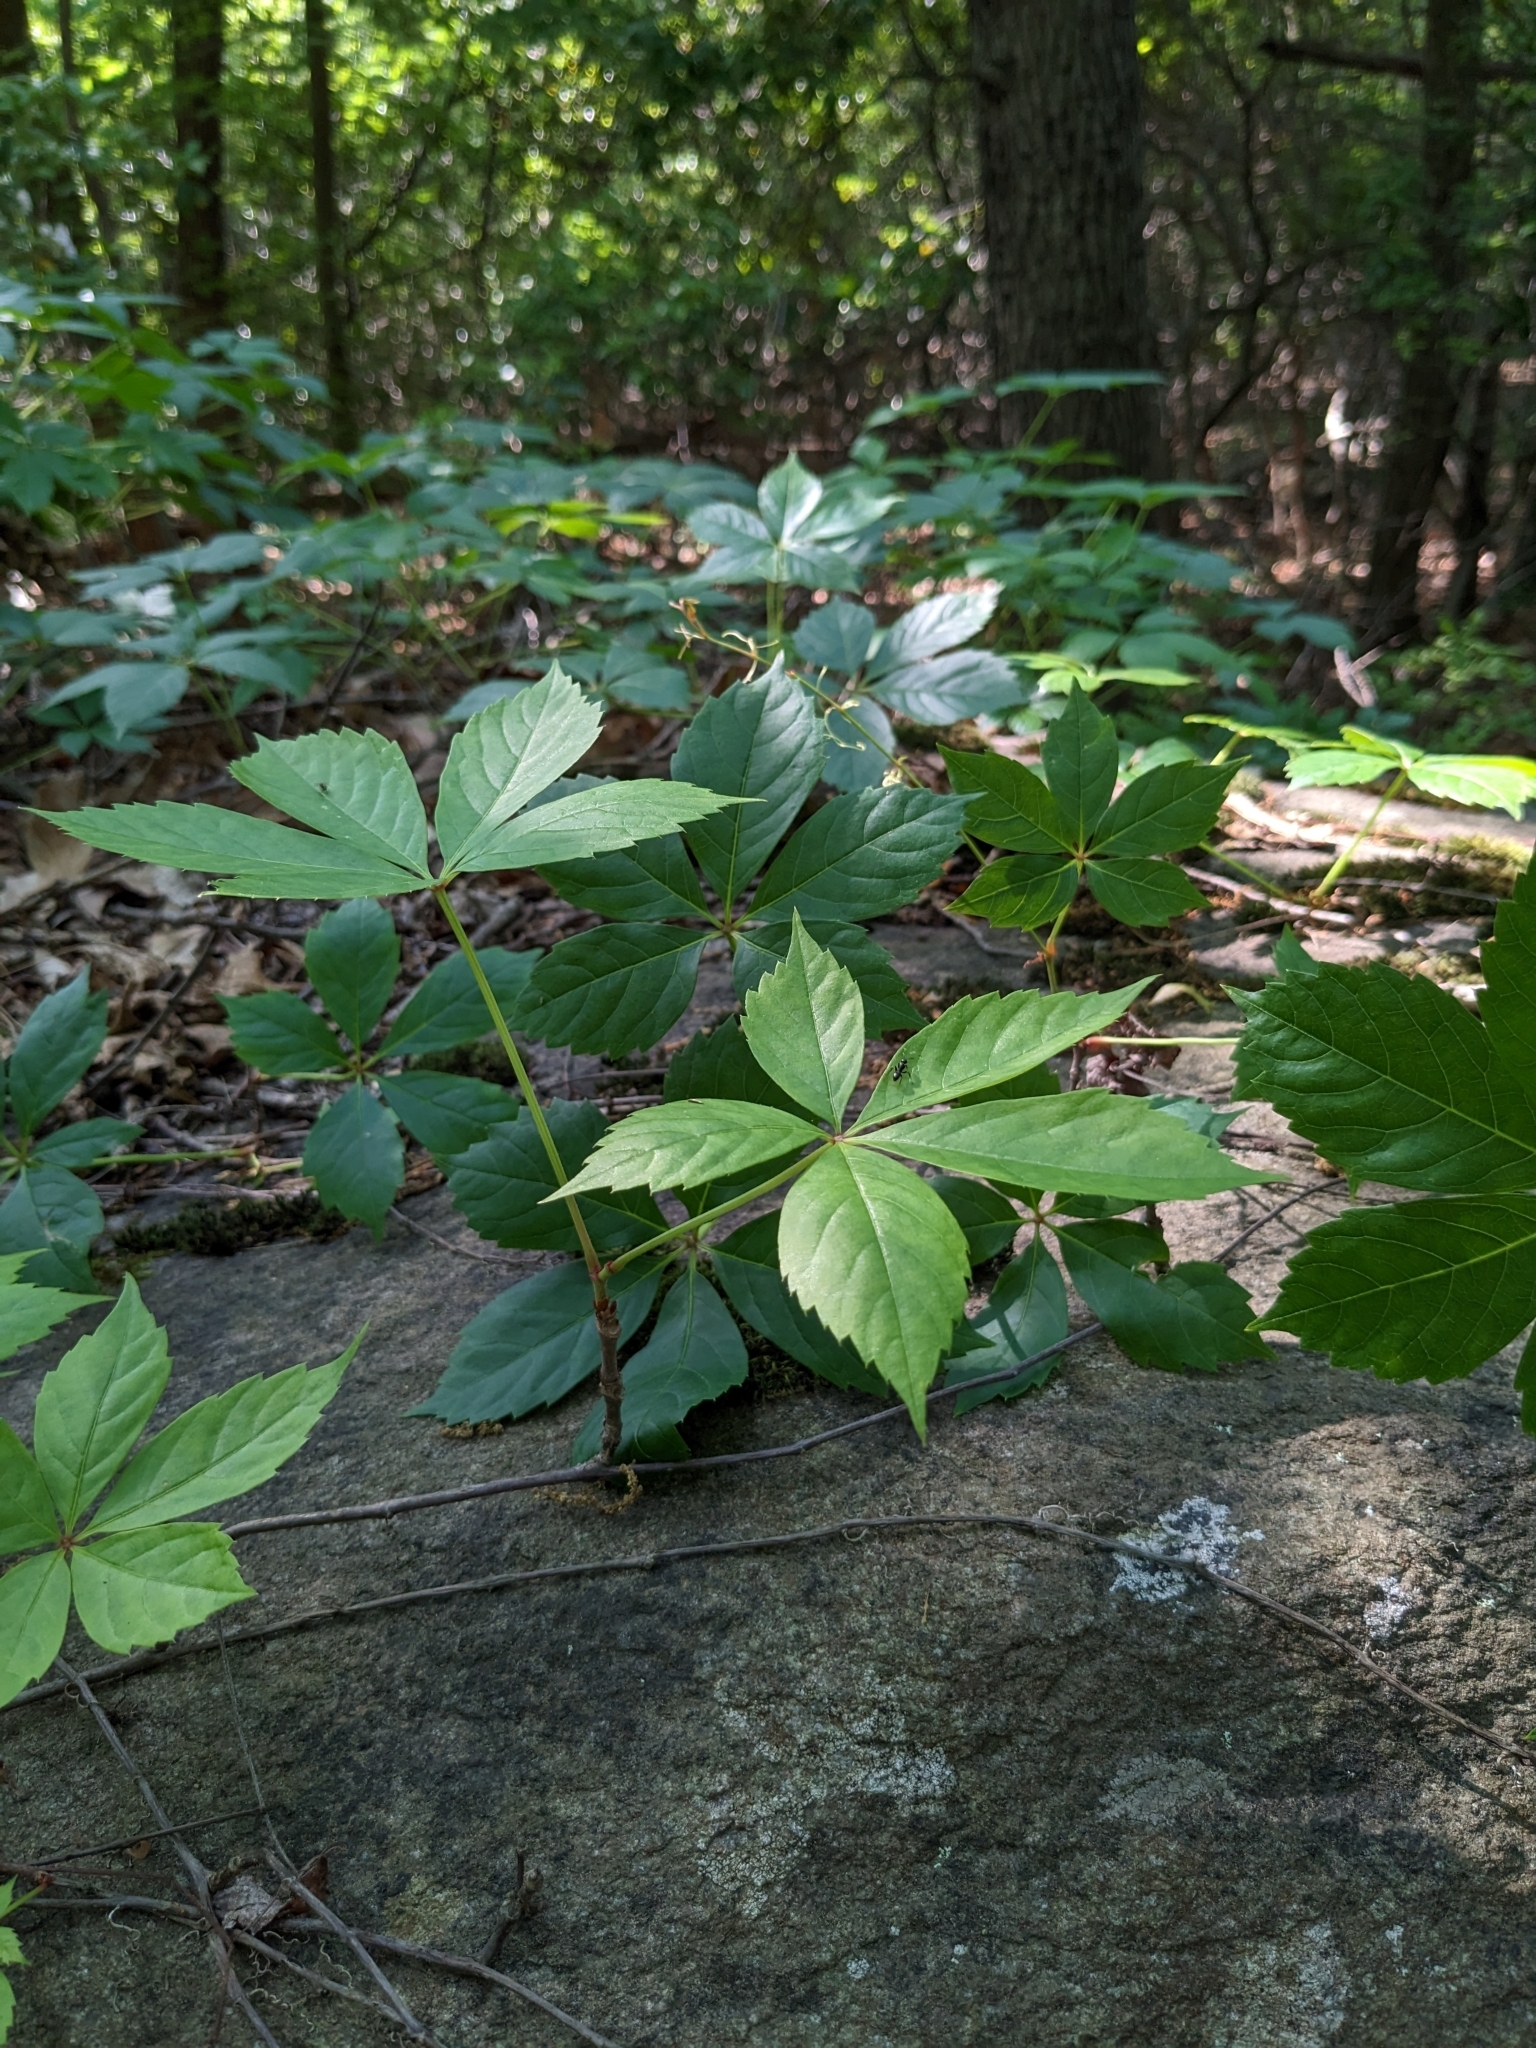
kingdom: Plantae
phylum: Tracheophyta
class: Magnoliopsida
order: Vitales
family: Vitaceae
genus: Parthenocissus
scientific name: Parthenocissus quinquefolia
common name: Virginia-creeper
